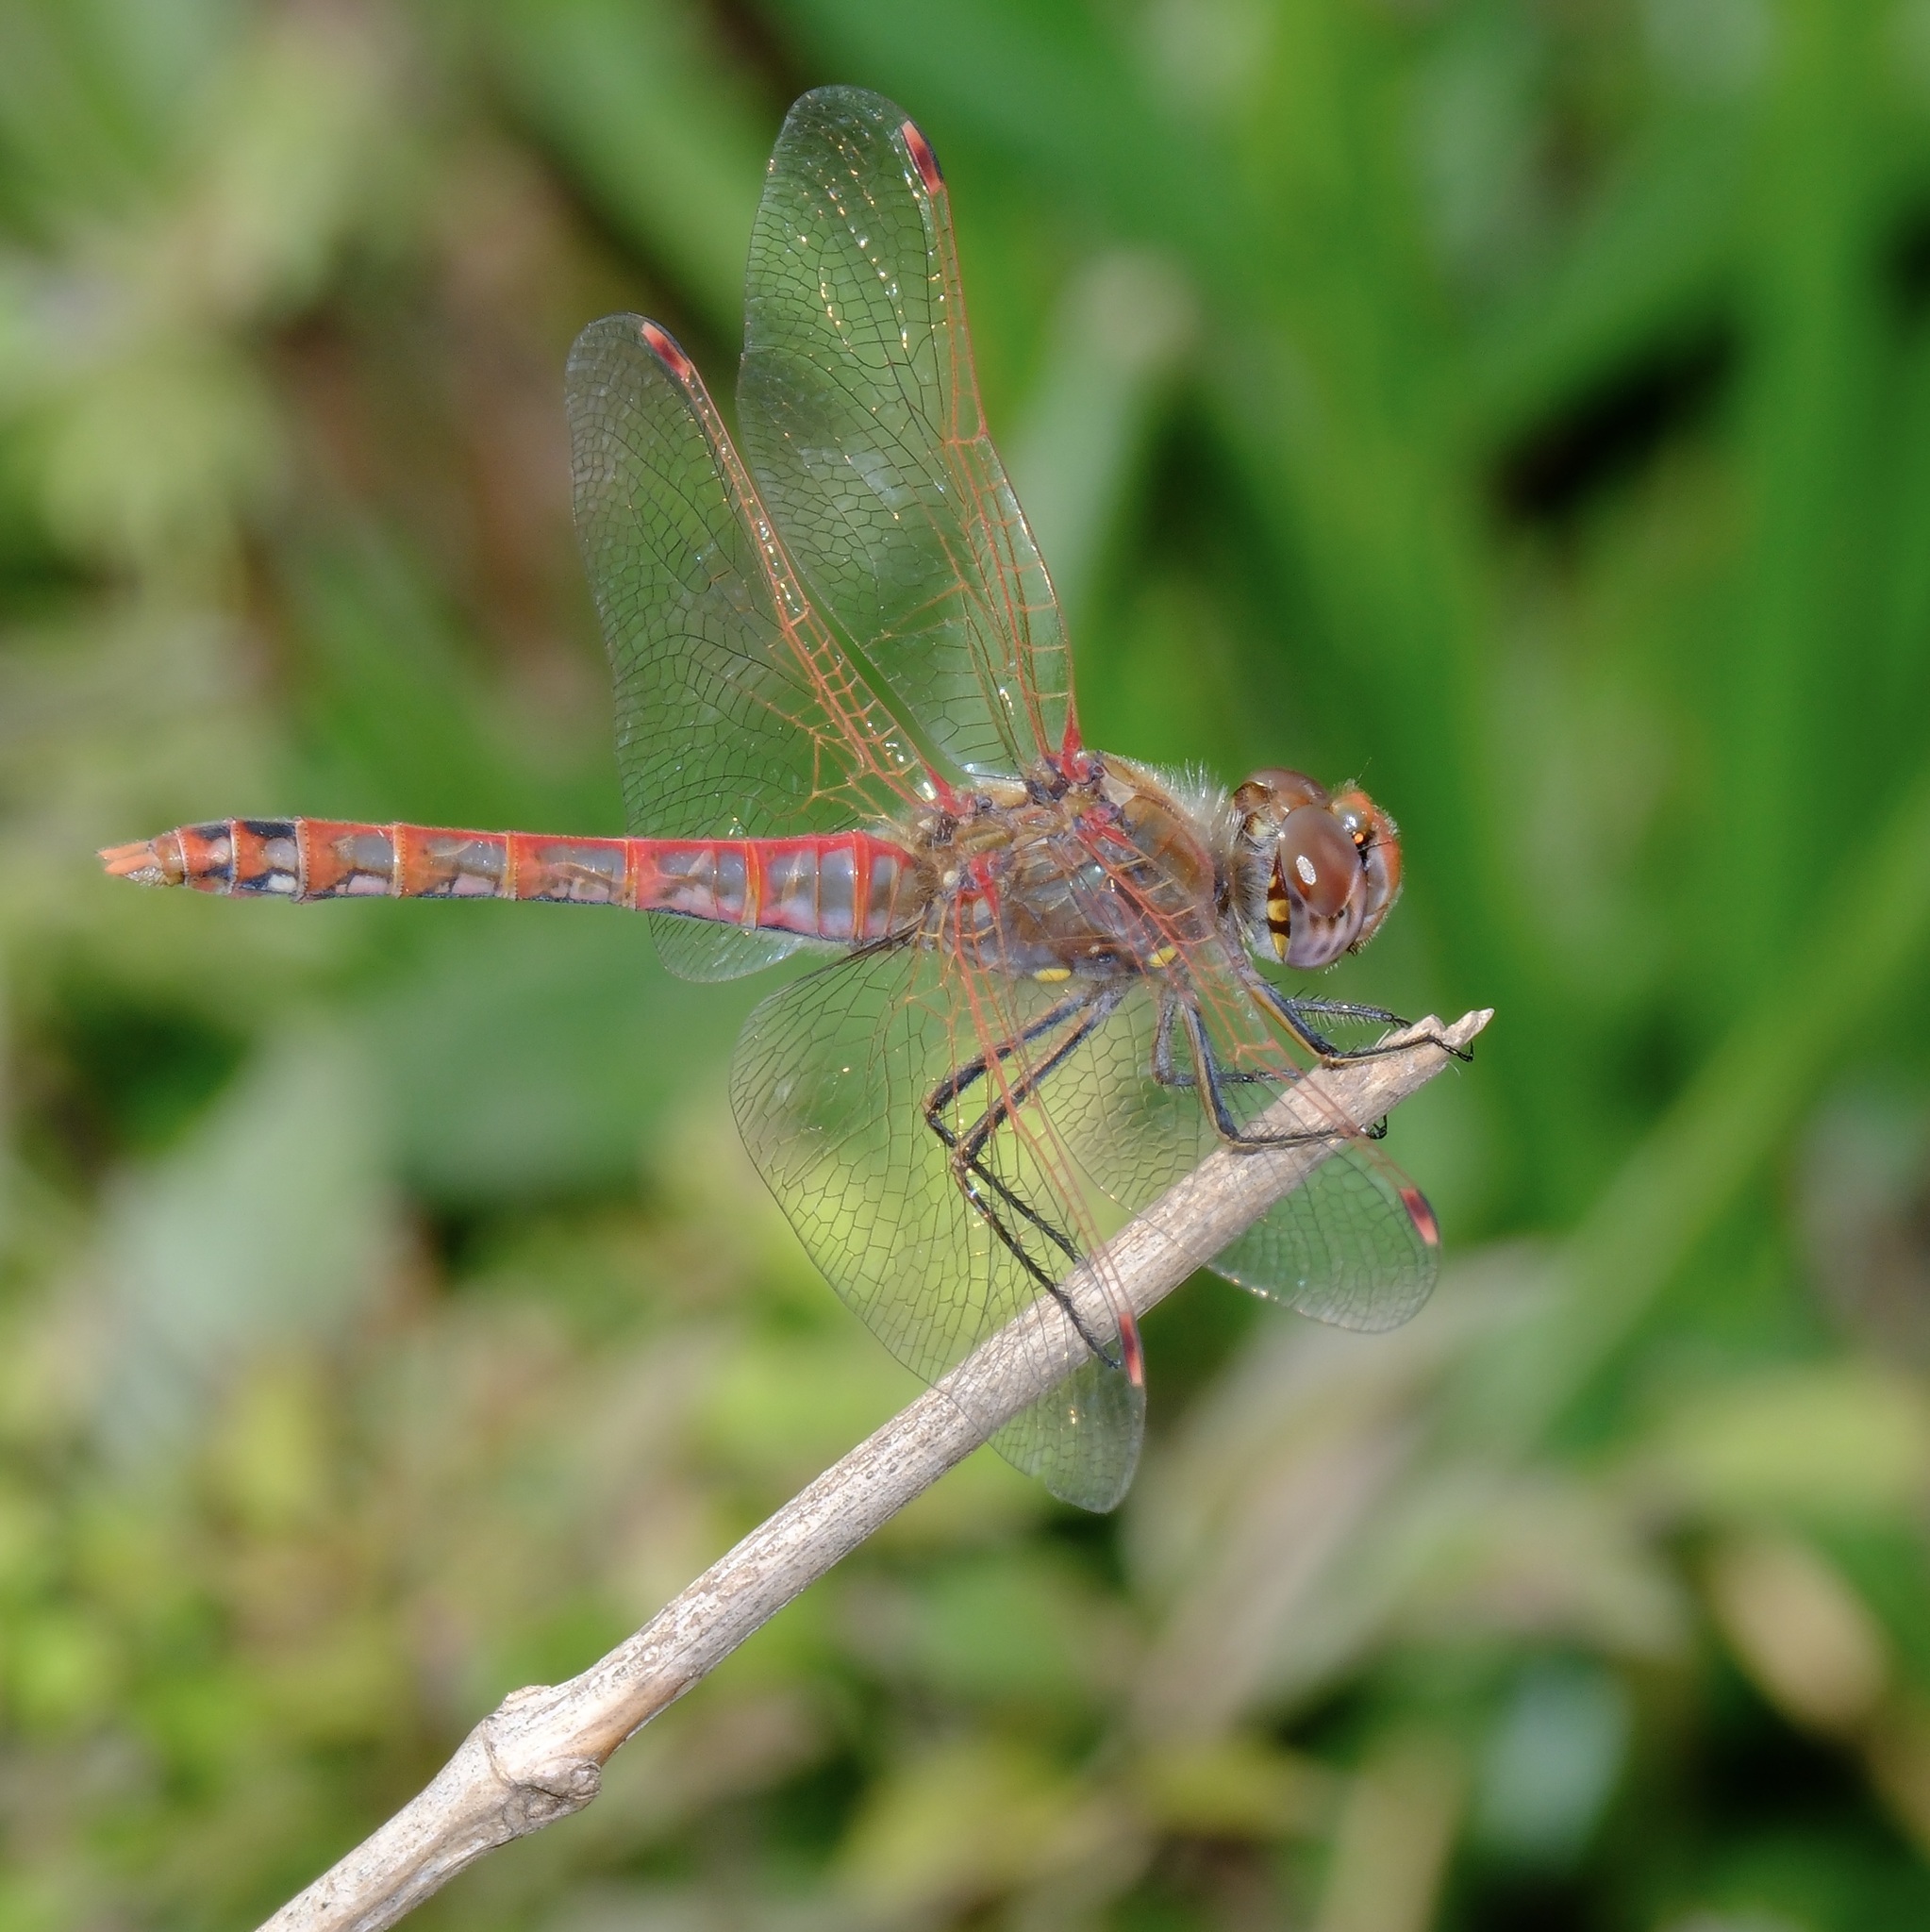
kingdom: Animalia
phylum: Arthropoda
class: Insecta
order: Odonata
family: Libellulidae
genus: Sympetrum
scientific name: Sympetrum corruptum
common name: Variegated meadowhawk
